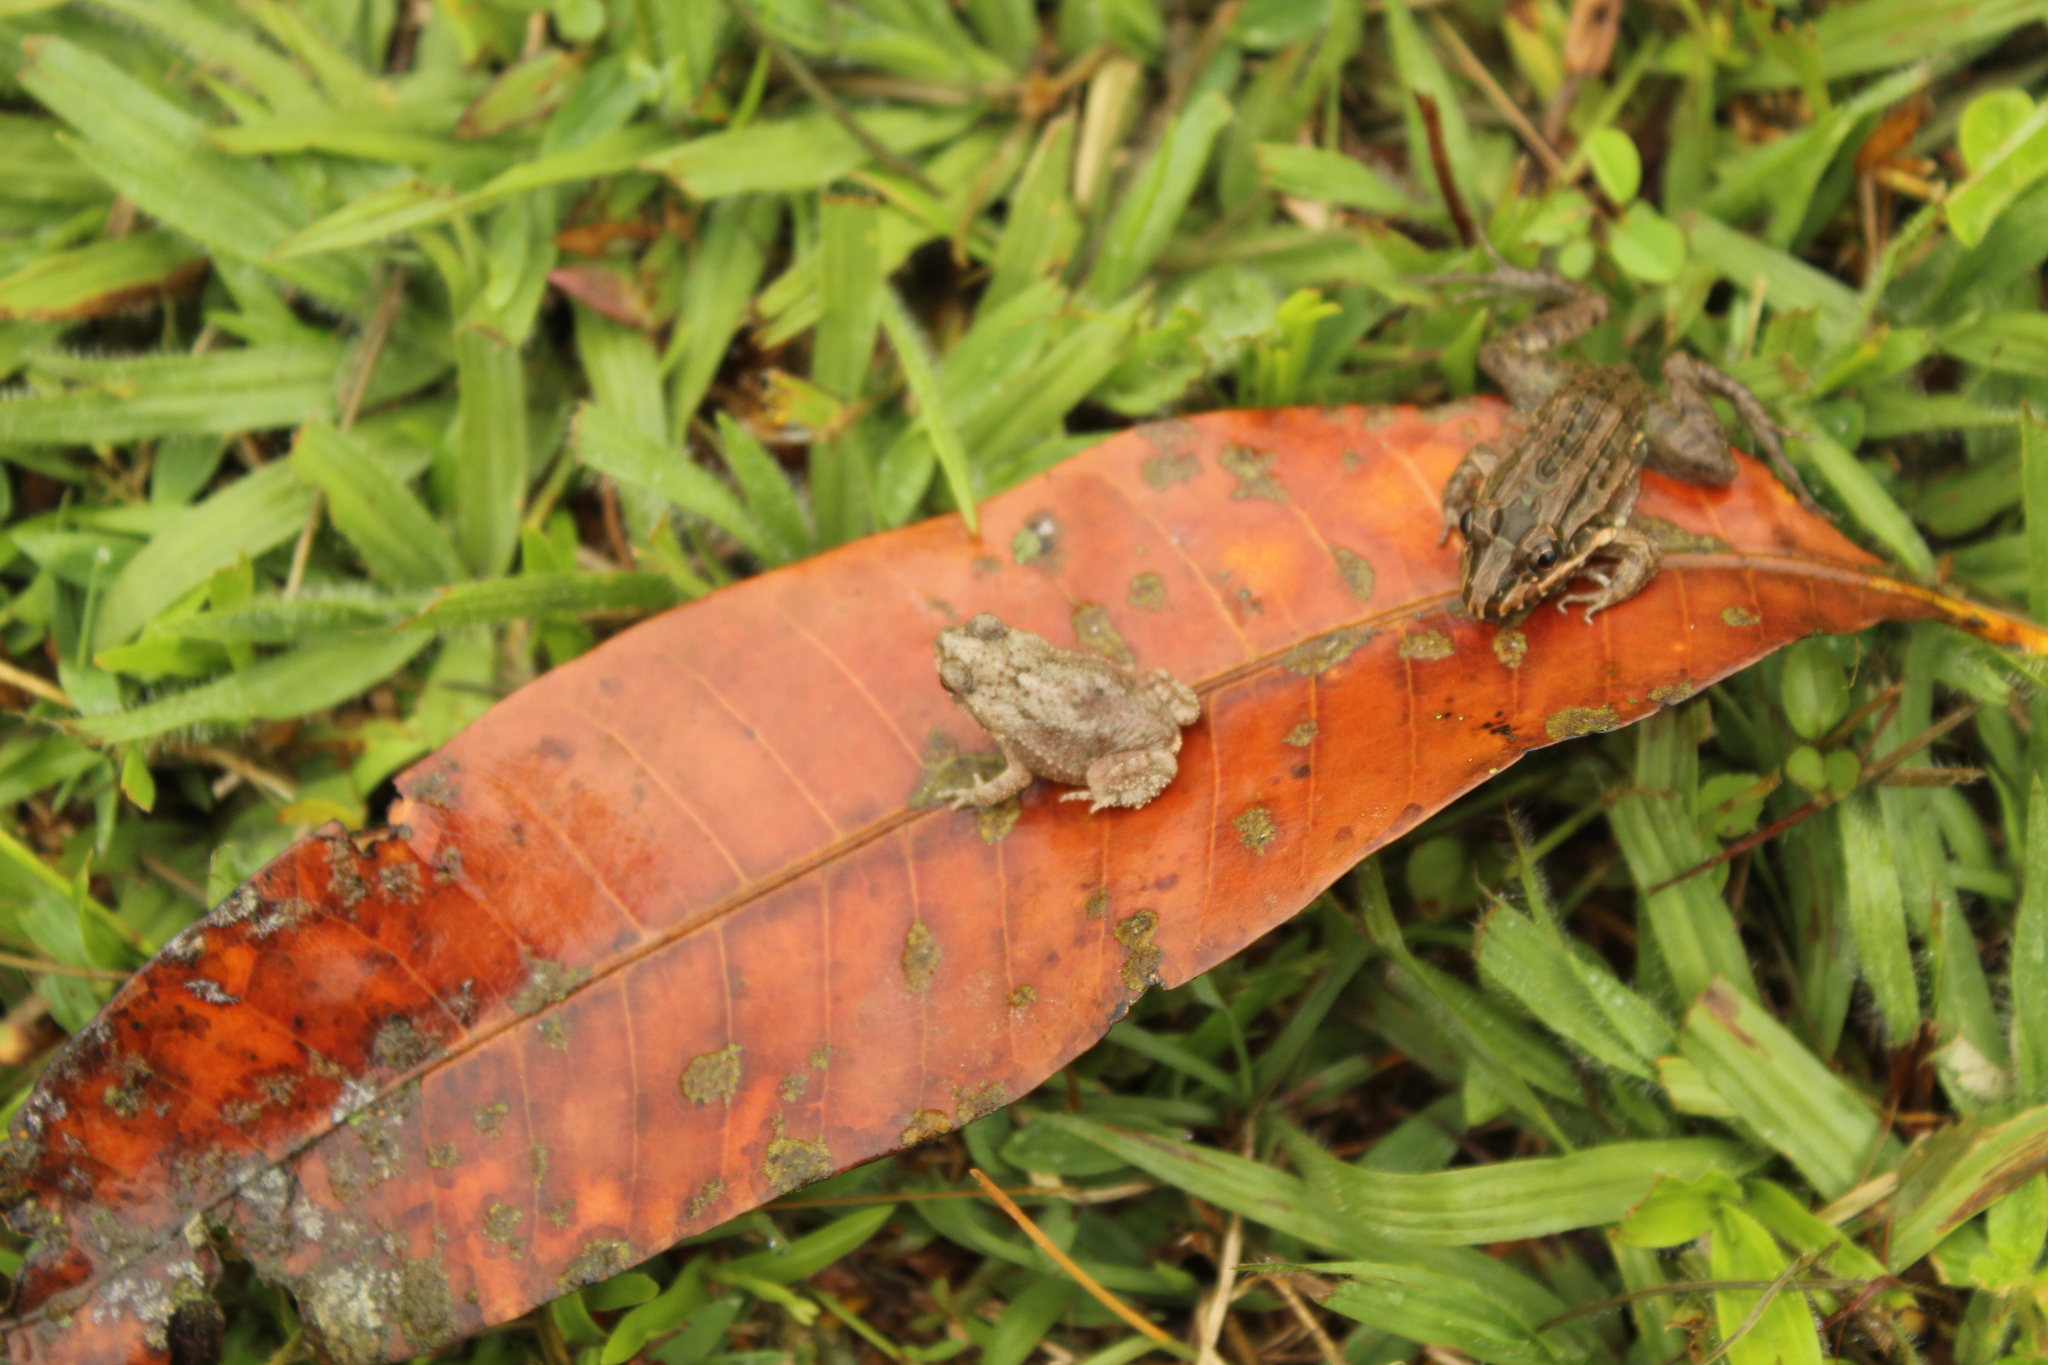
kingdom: Animalia
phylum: Chordata
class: Amphibia
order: Anura
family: Bufonidae
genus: Rhinella
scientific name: Rhinella beebei
